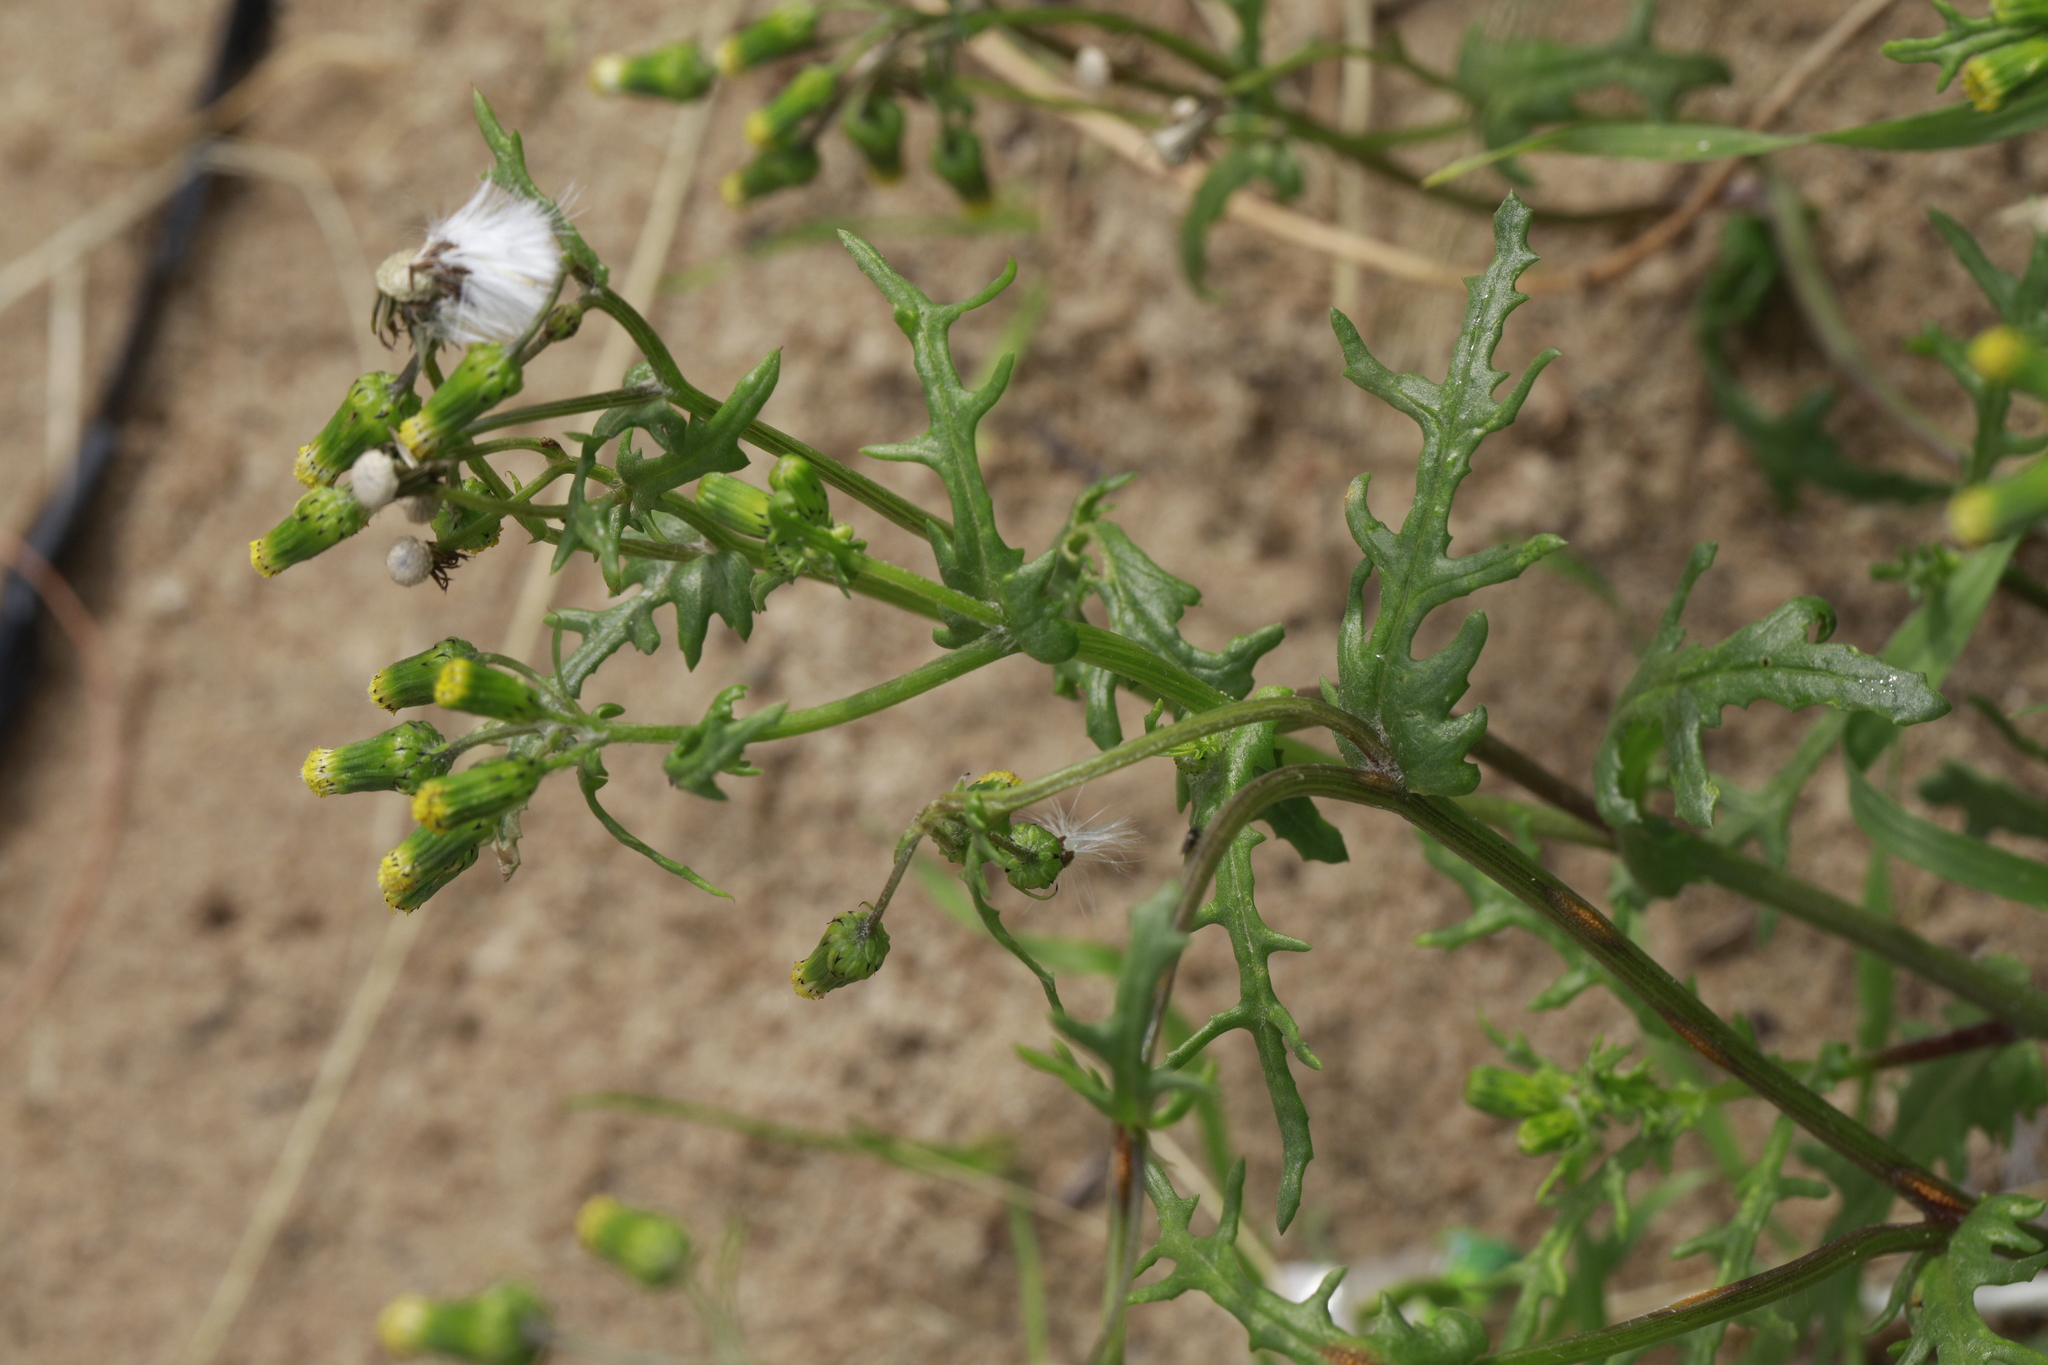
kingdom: Plantae
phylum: Tracheophyta
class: Magnoliopsida
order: Asterales
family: Asteraceae
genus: Senecio
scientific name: Senecio vulgaris
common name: Old-man-in-the-spring
